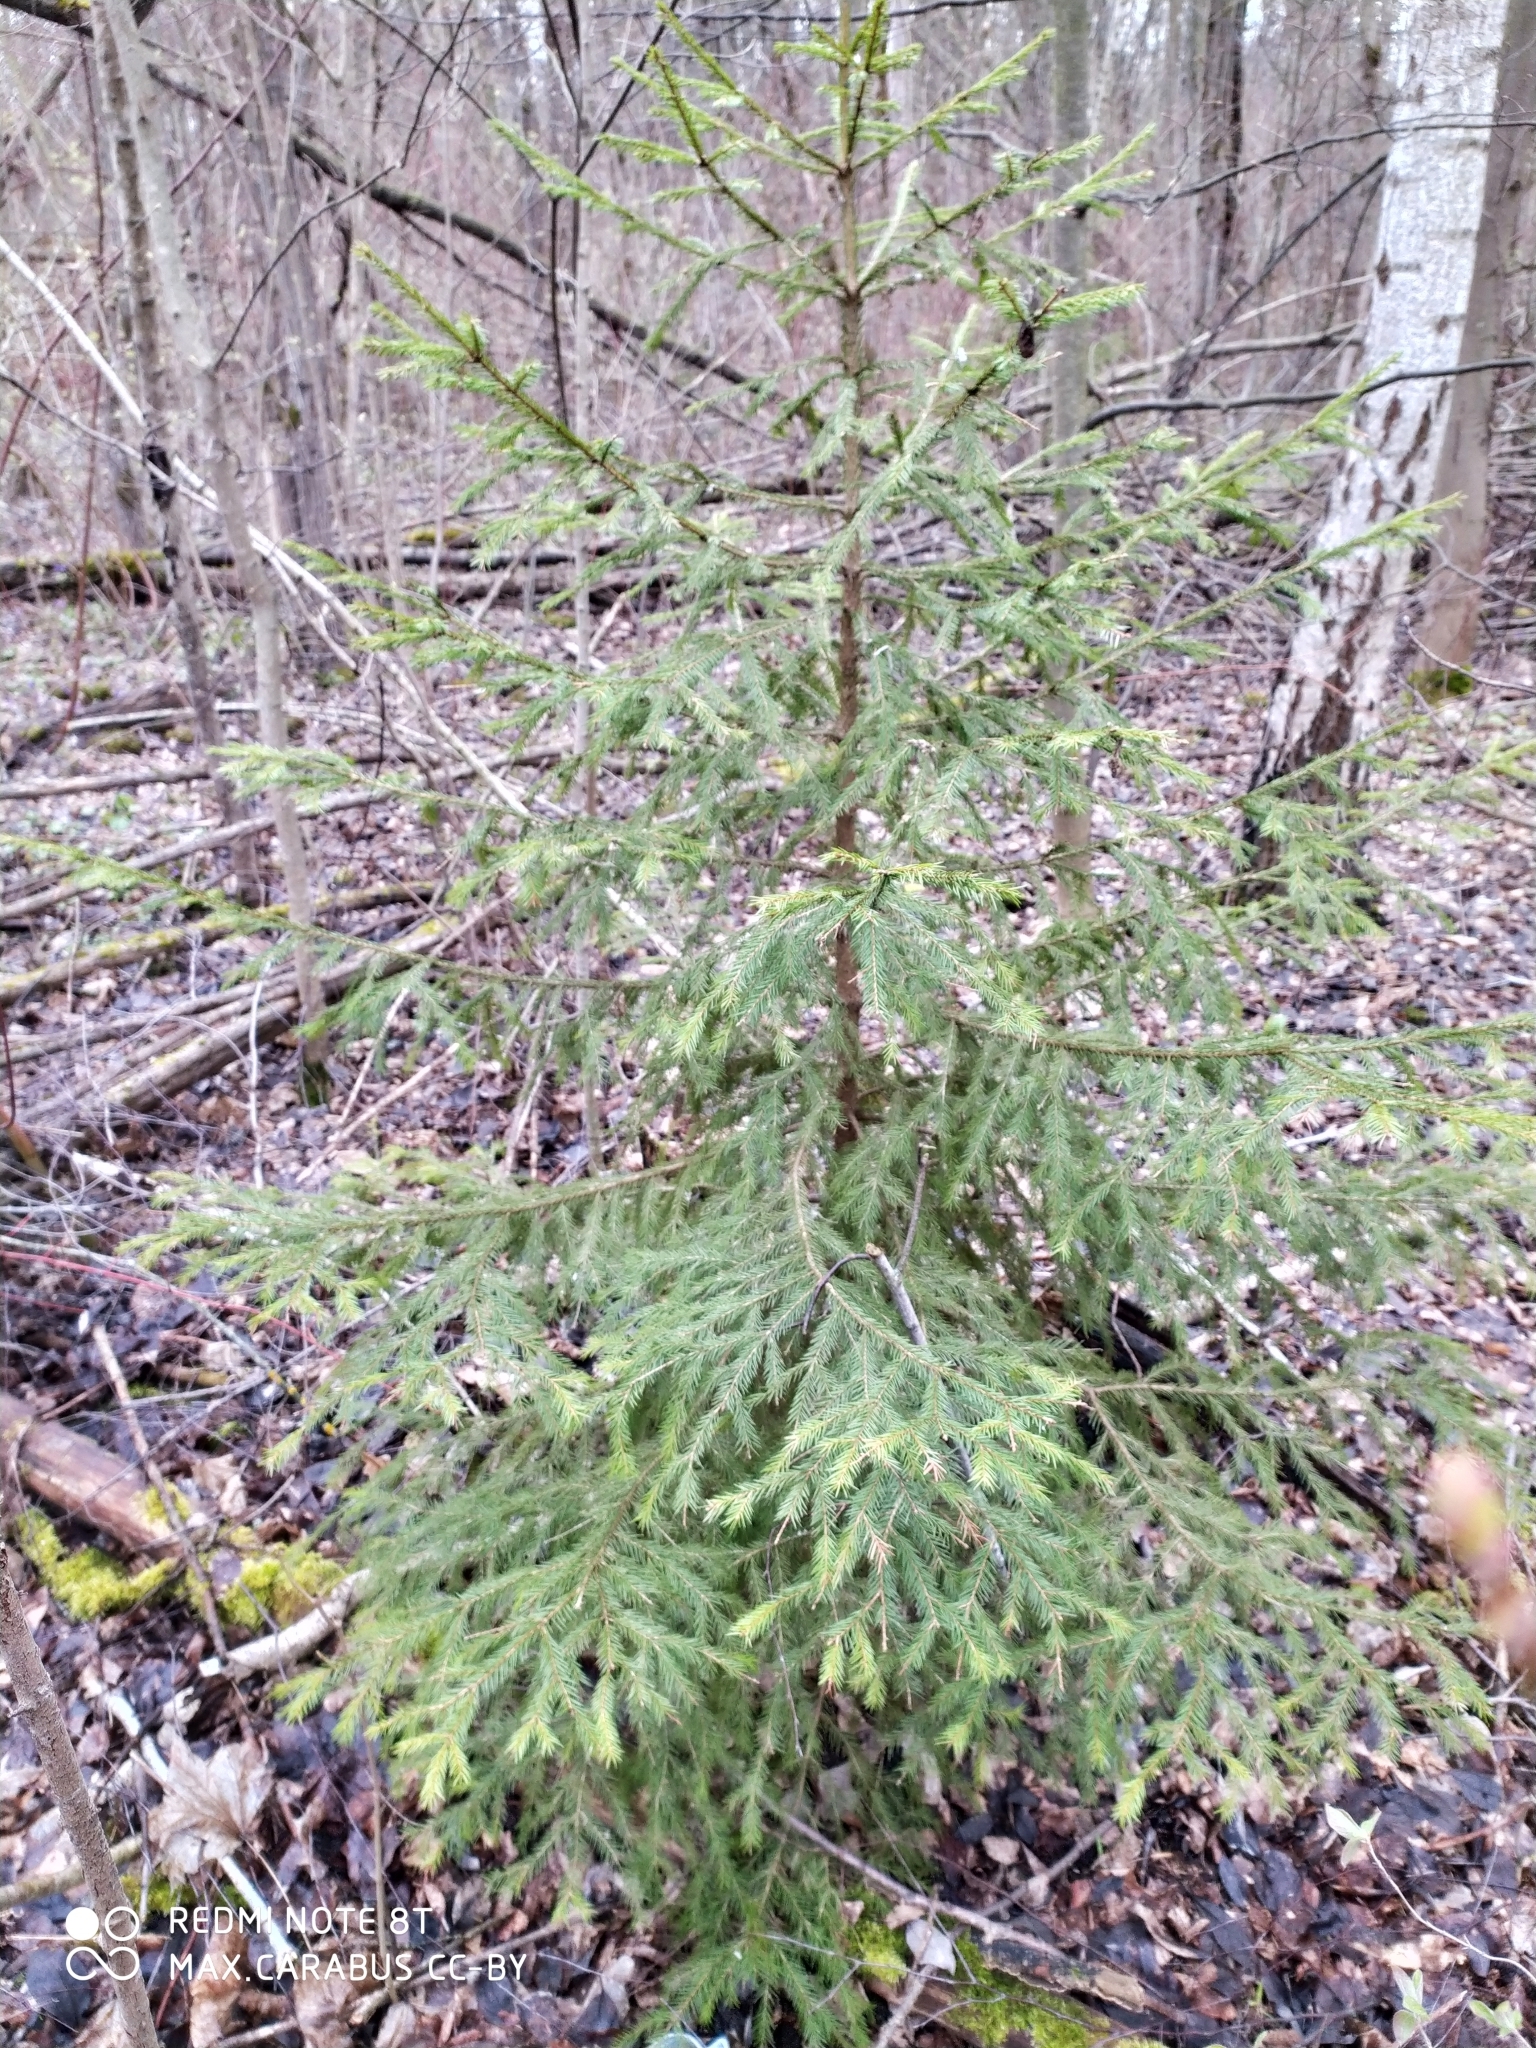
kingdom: Plantae
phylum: Tracheophyta
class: Pinopsida
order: Pinales
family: Pinaceae
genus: Picea
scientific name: Picea abies
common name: Norway spruce
